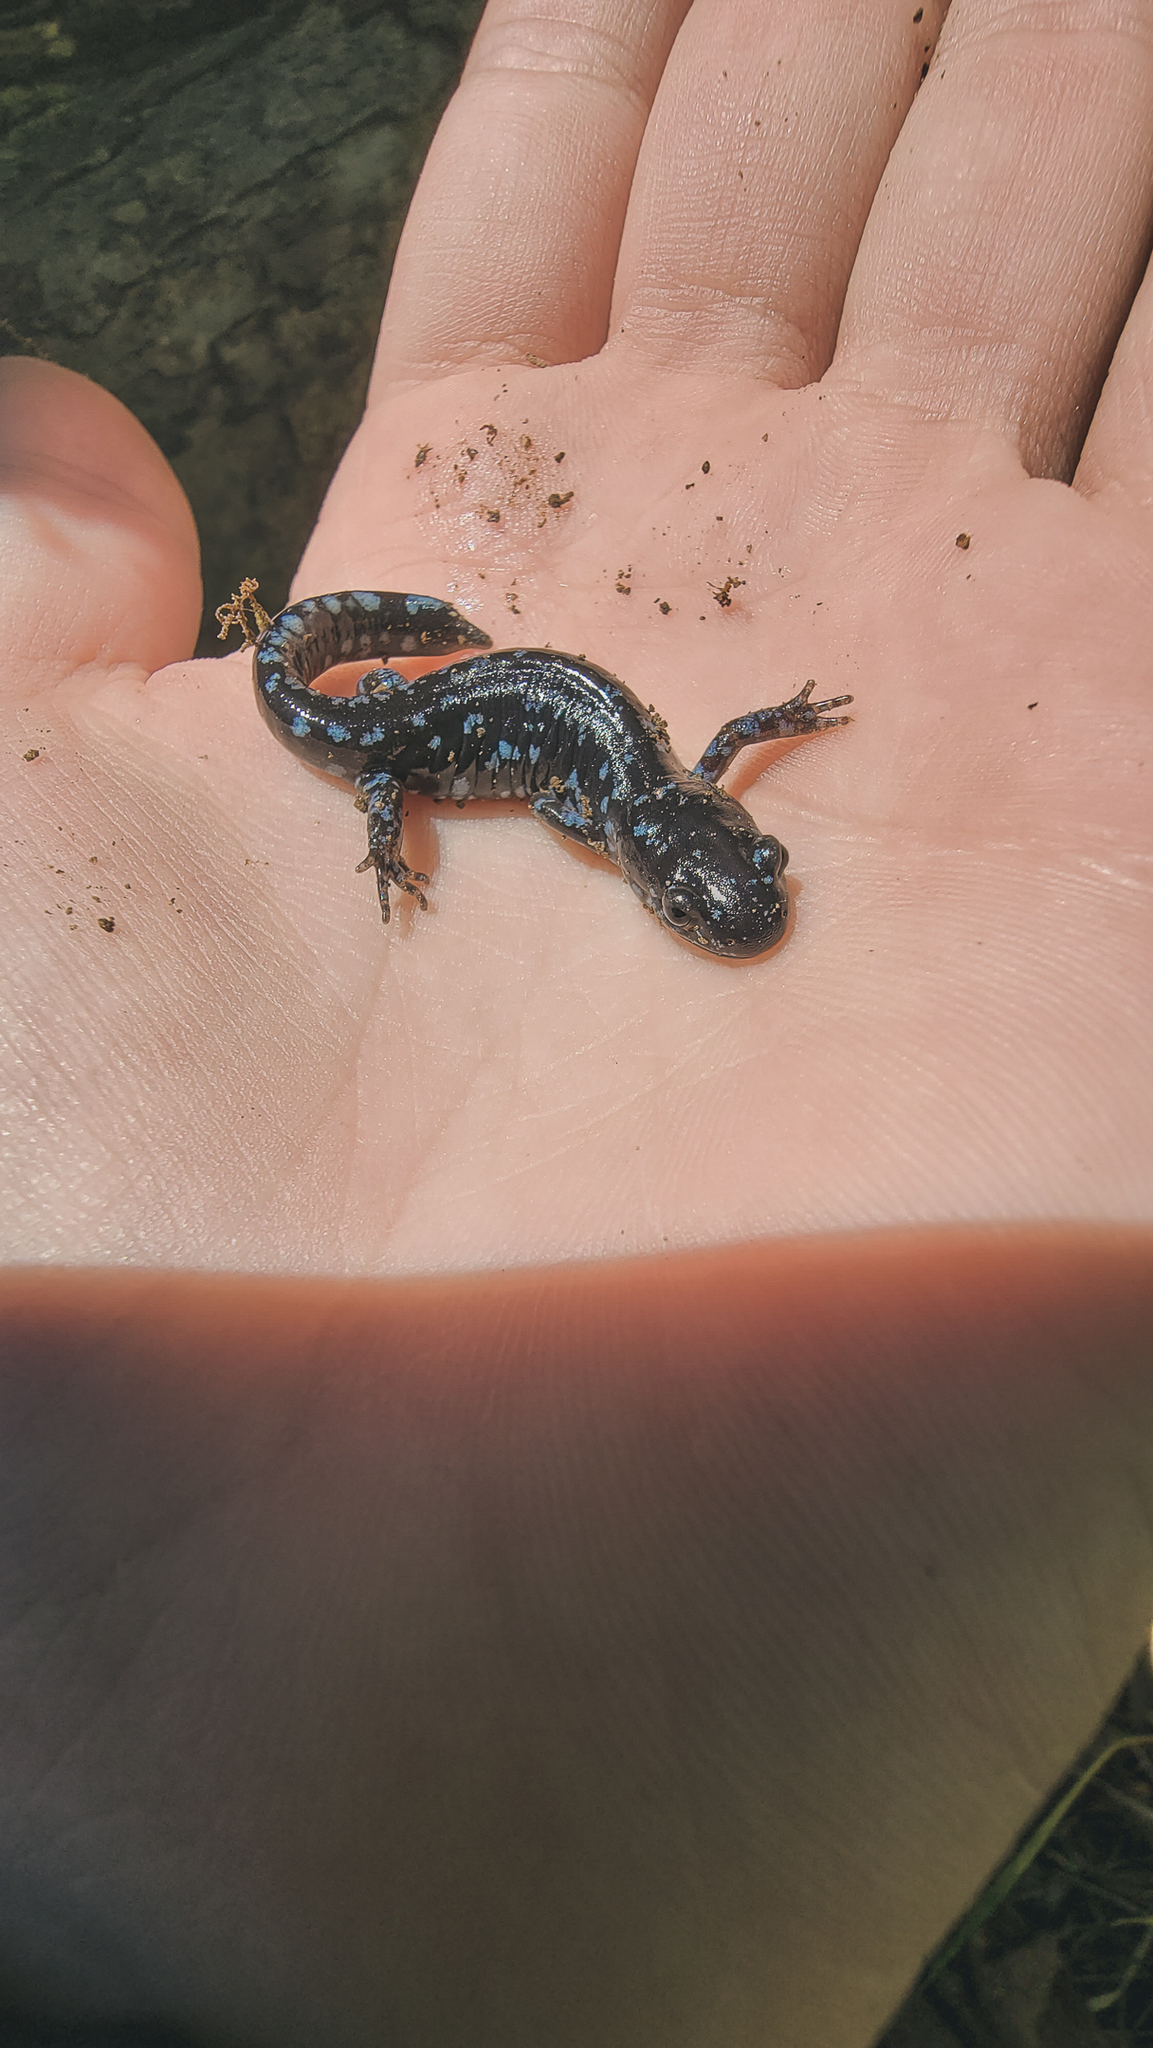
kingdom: Animalia
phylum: Chordata
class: Amphibia
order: Caudata
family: Ambystomatidae
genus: Ambystoma
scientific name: Ambystoma laterale
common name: Blue-spotted salamander
